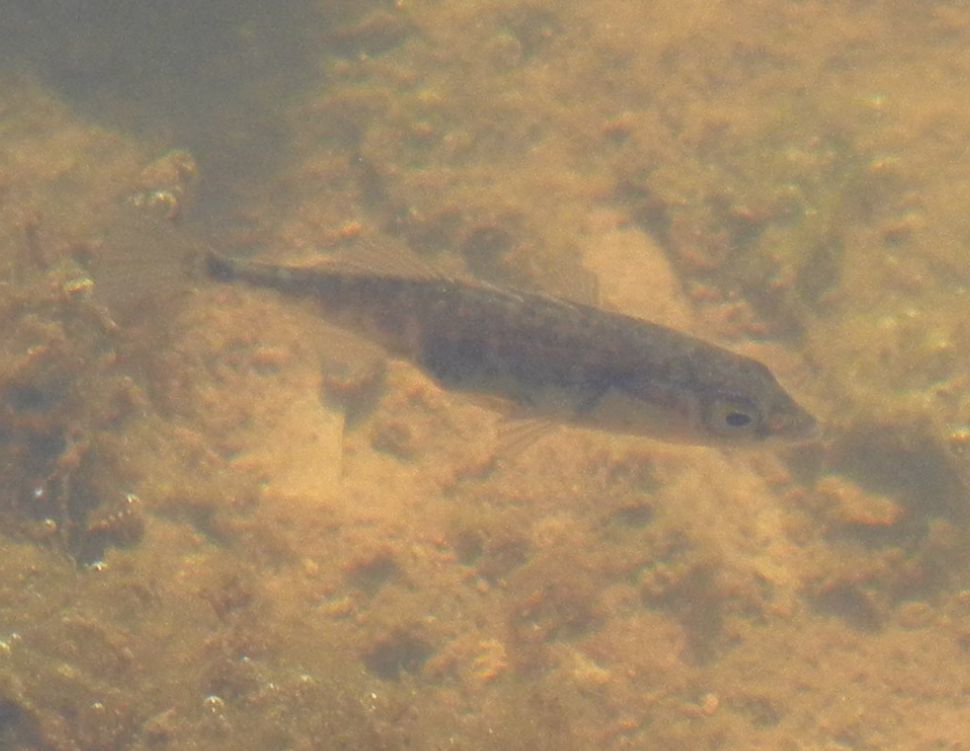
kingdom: Animalia
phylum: Chordata
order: Gasterosteiformes
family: Gasterosteidae
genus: Gasterosteus
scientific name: Gasterosteus aculeatus
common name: Three-spined stickleback
